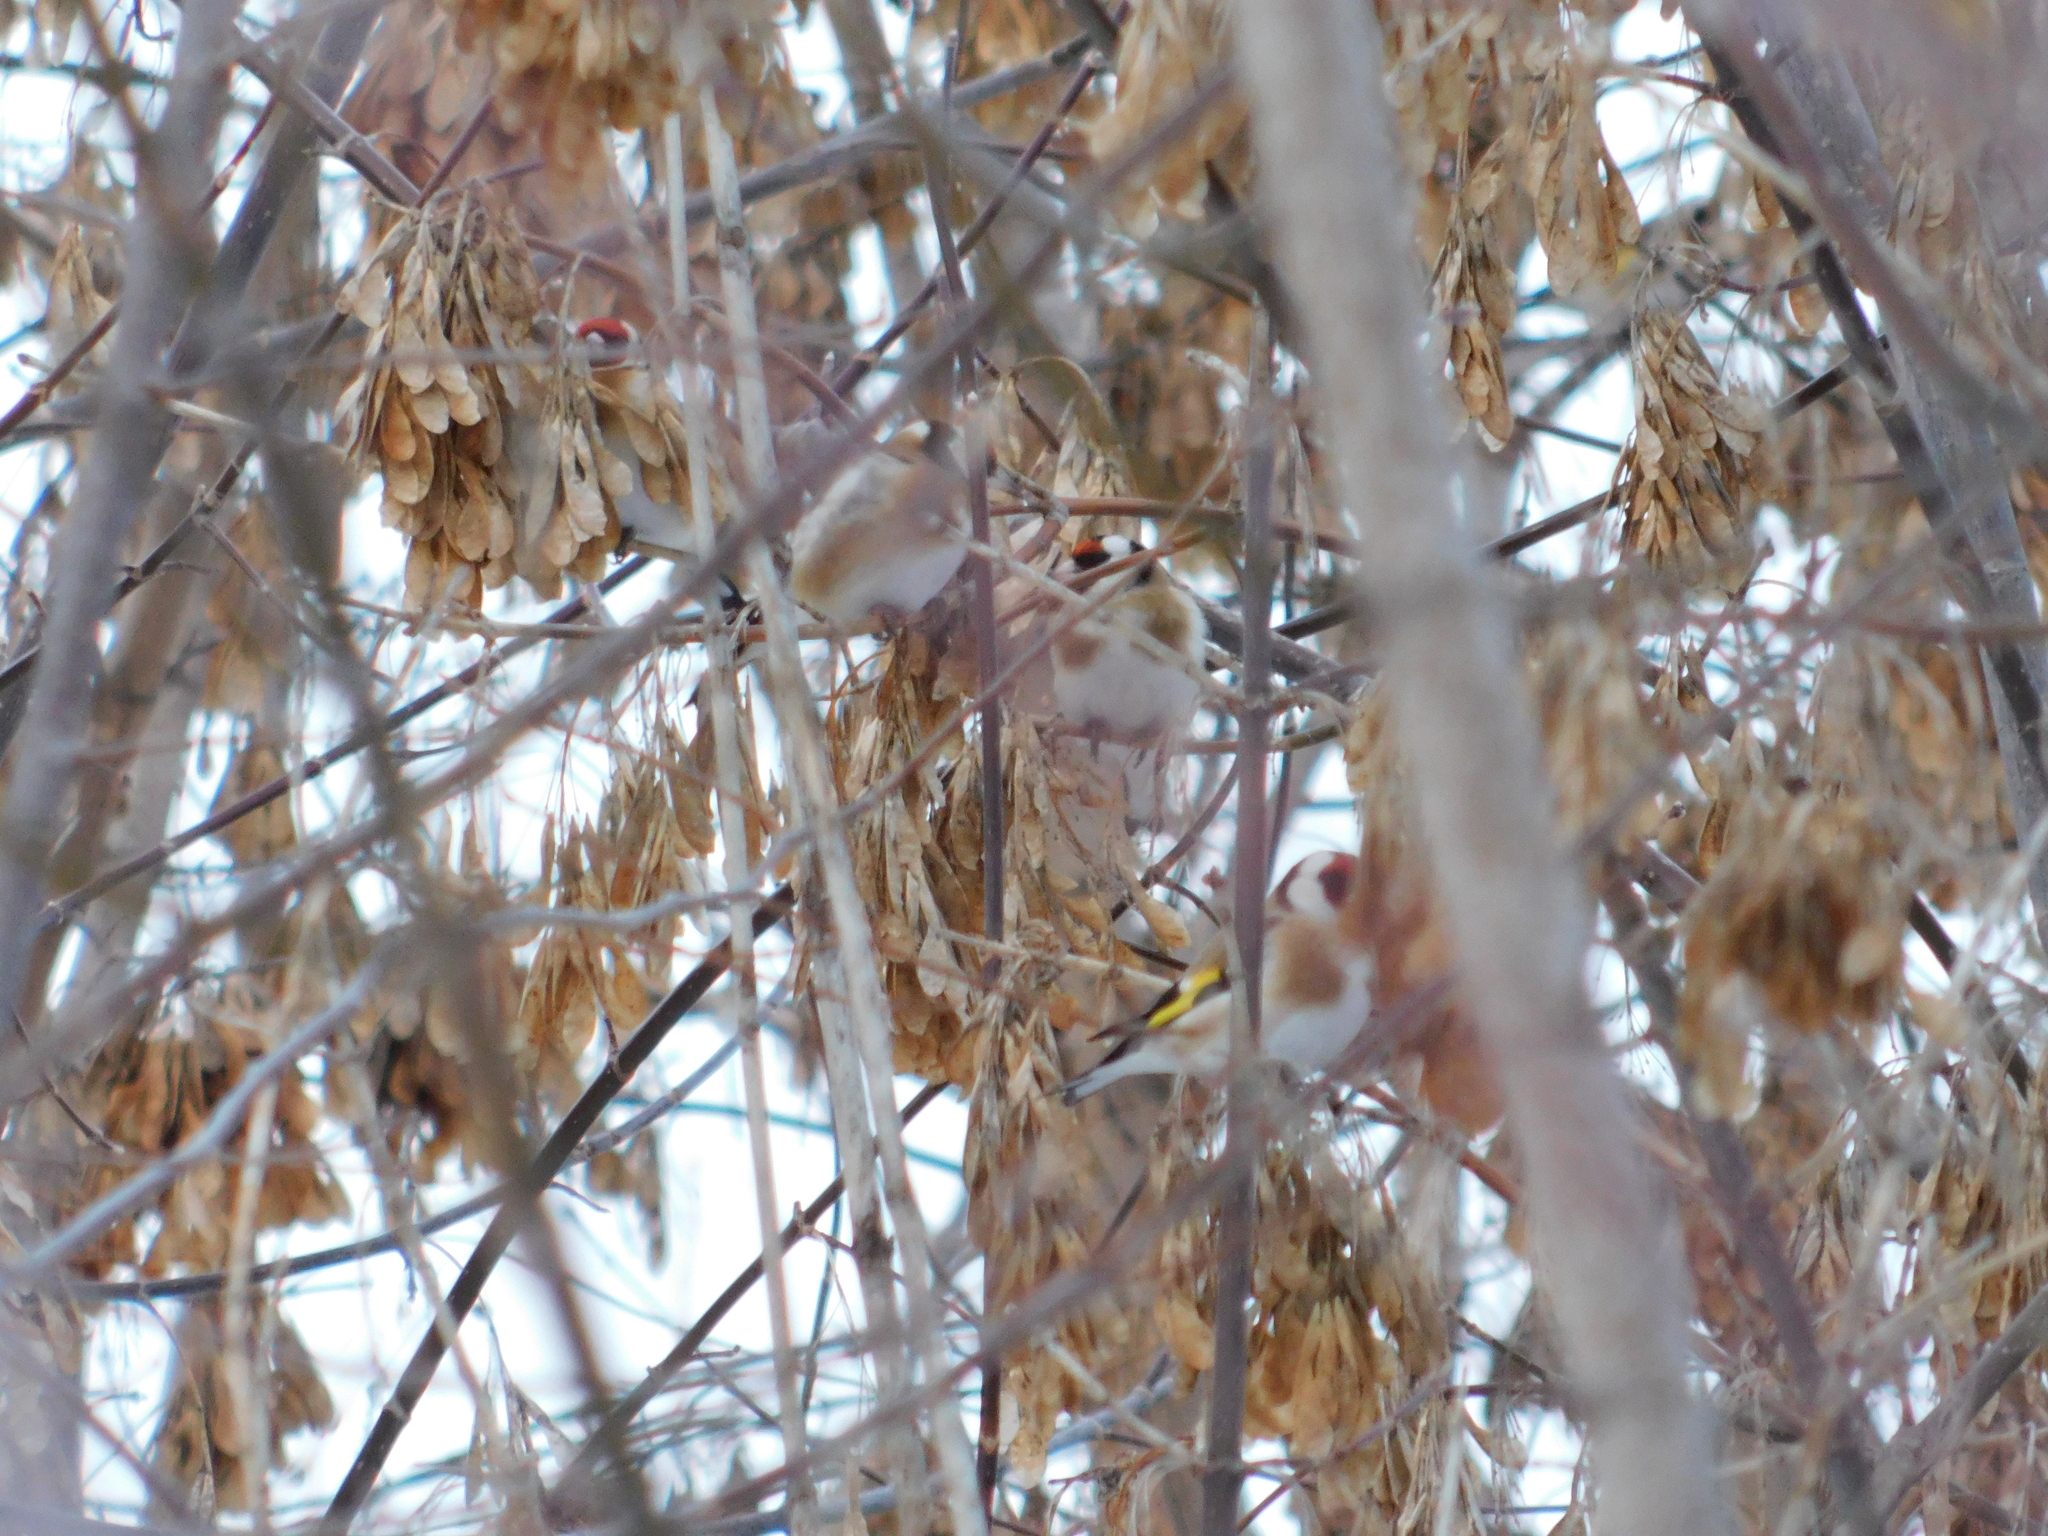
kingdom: Animalia
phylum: Chordata
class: Aves
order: Passeriformes
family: Fringillidae
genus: Carduelis
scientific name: Carduelis carduelis
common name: European goldfinch
